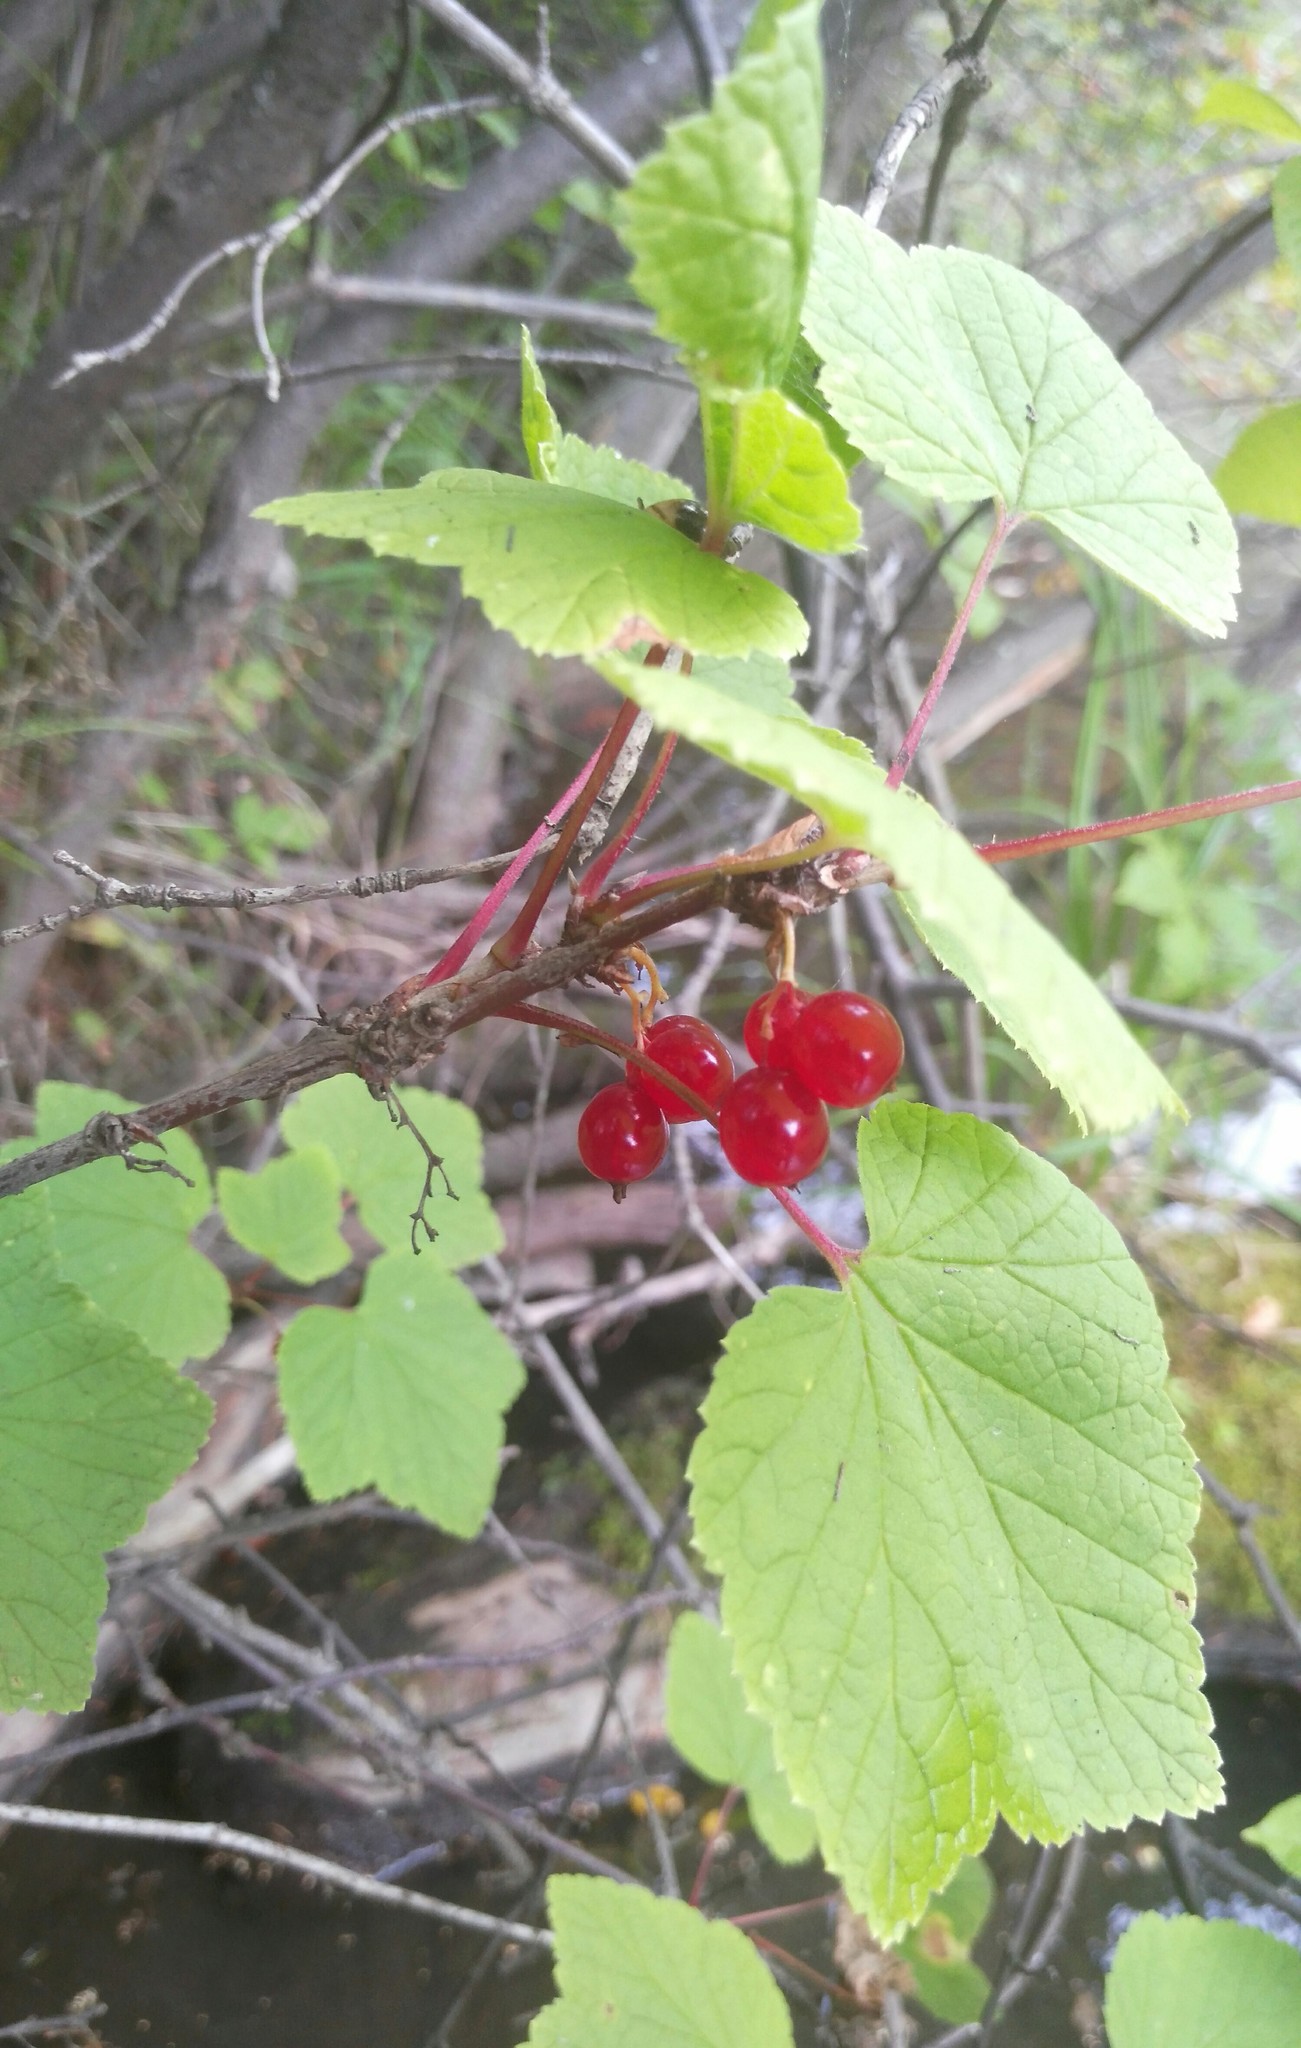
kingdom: Plantae
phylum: Tracheophyta
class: Magnoliopsida
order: Saxifragales
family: Grossulariaceae
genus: Ribes
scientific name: Ribes spicatum
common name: Downy currant
